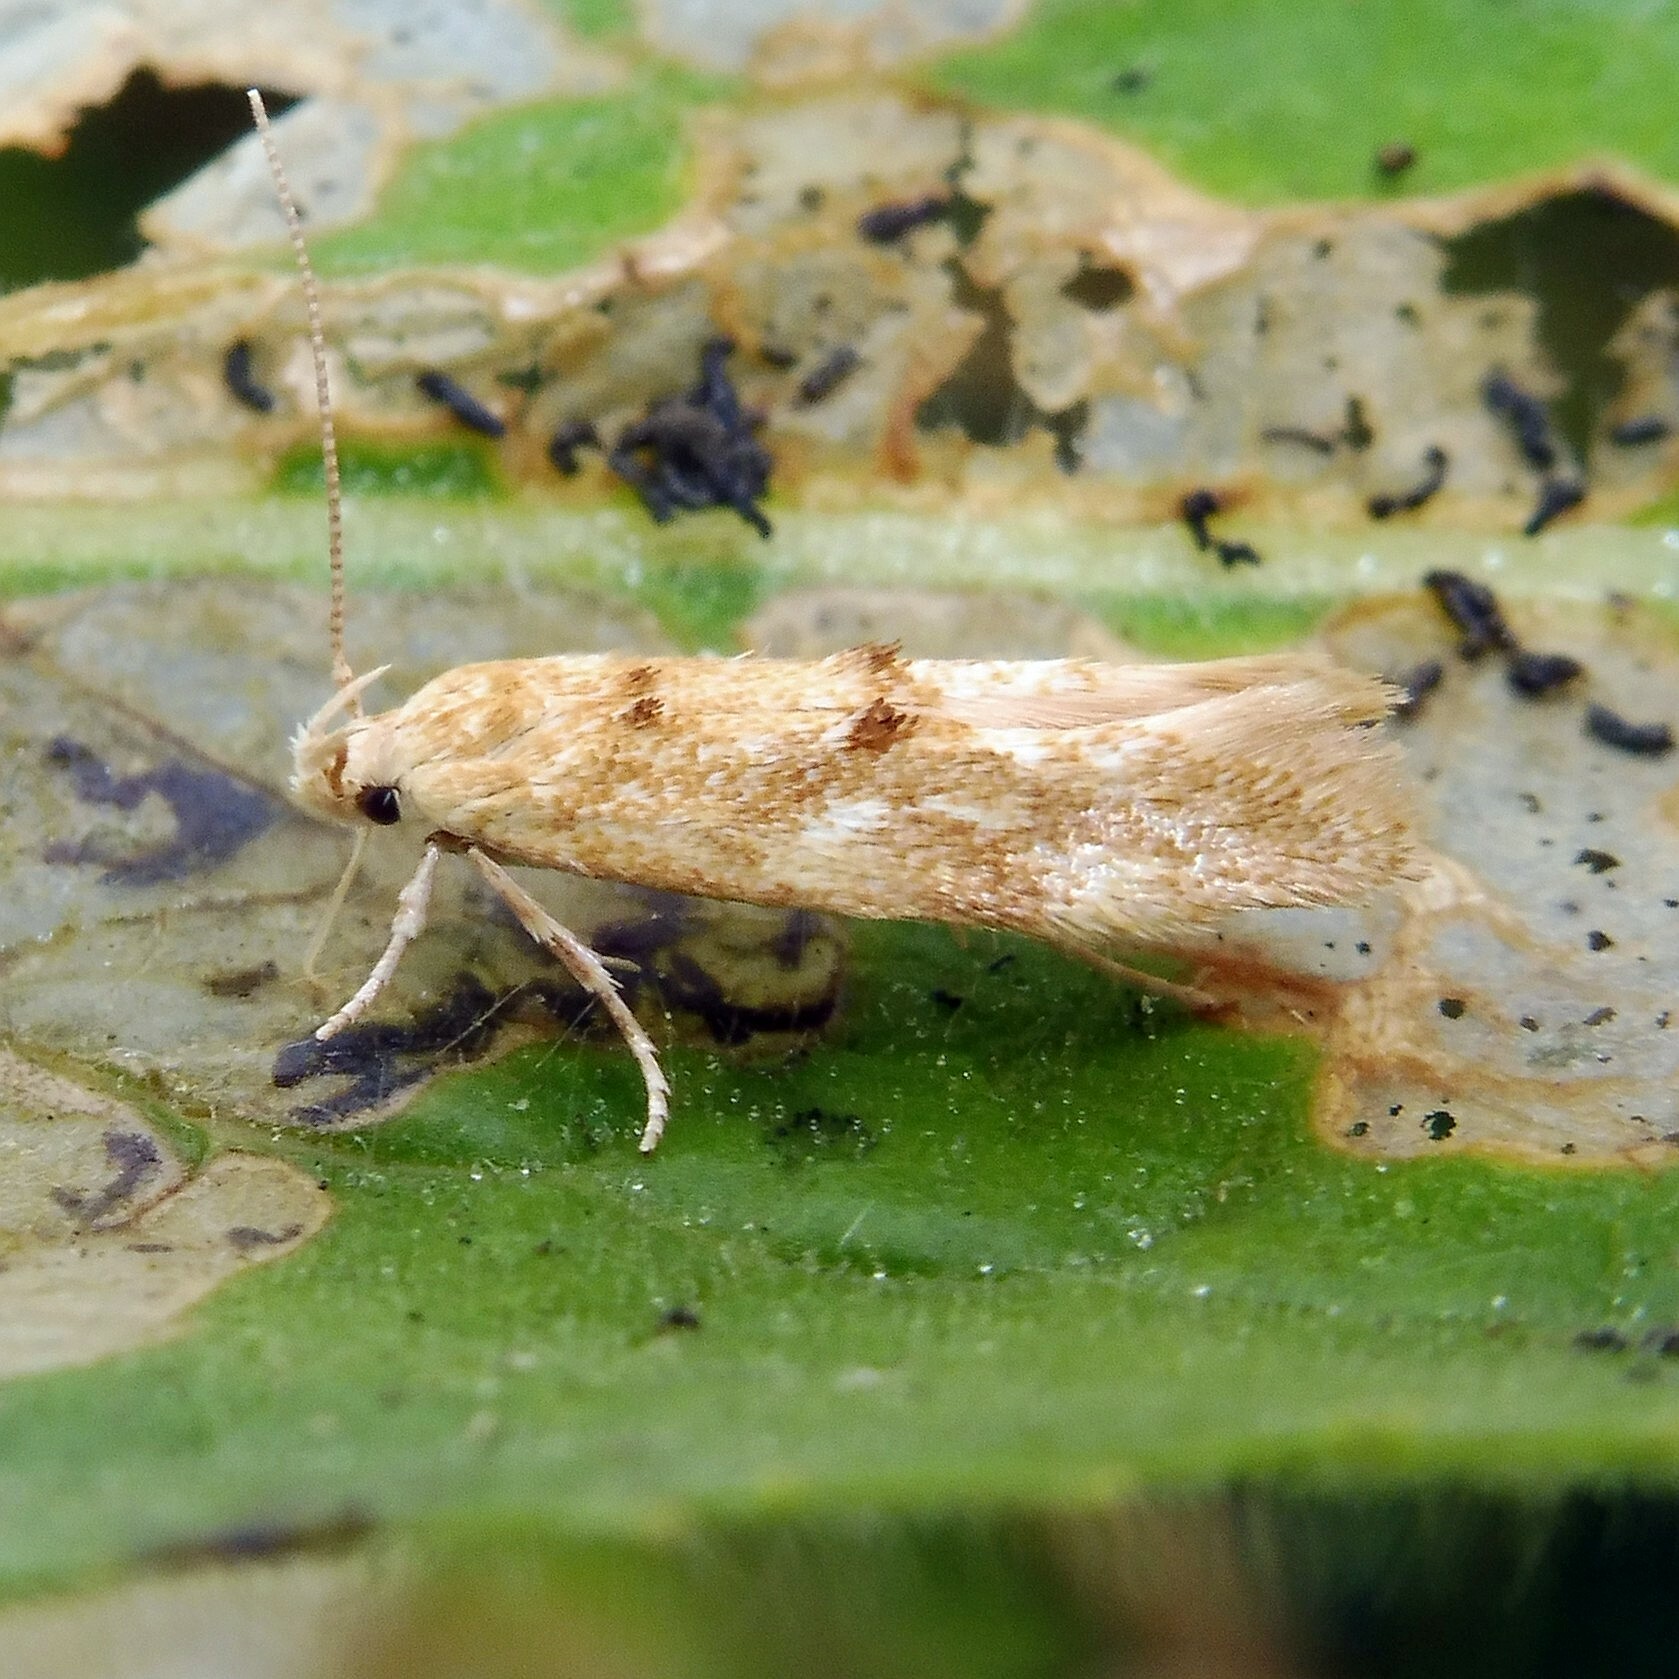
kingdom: Animalia
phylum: Arthropoda
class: Insecta
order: Lepidoptera
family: Momphidae
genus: Mompha
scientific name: Mompha ochraceella
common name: Buff cosmet
